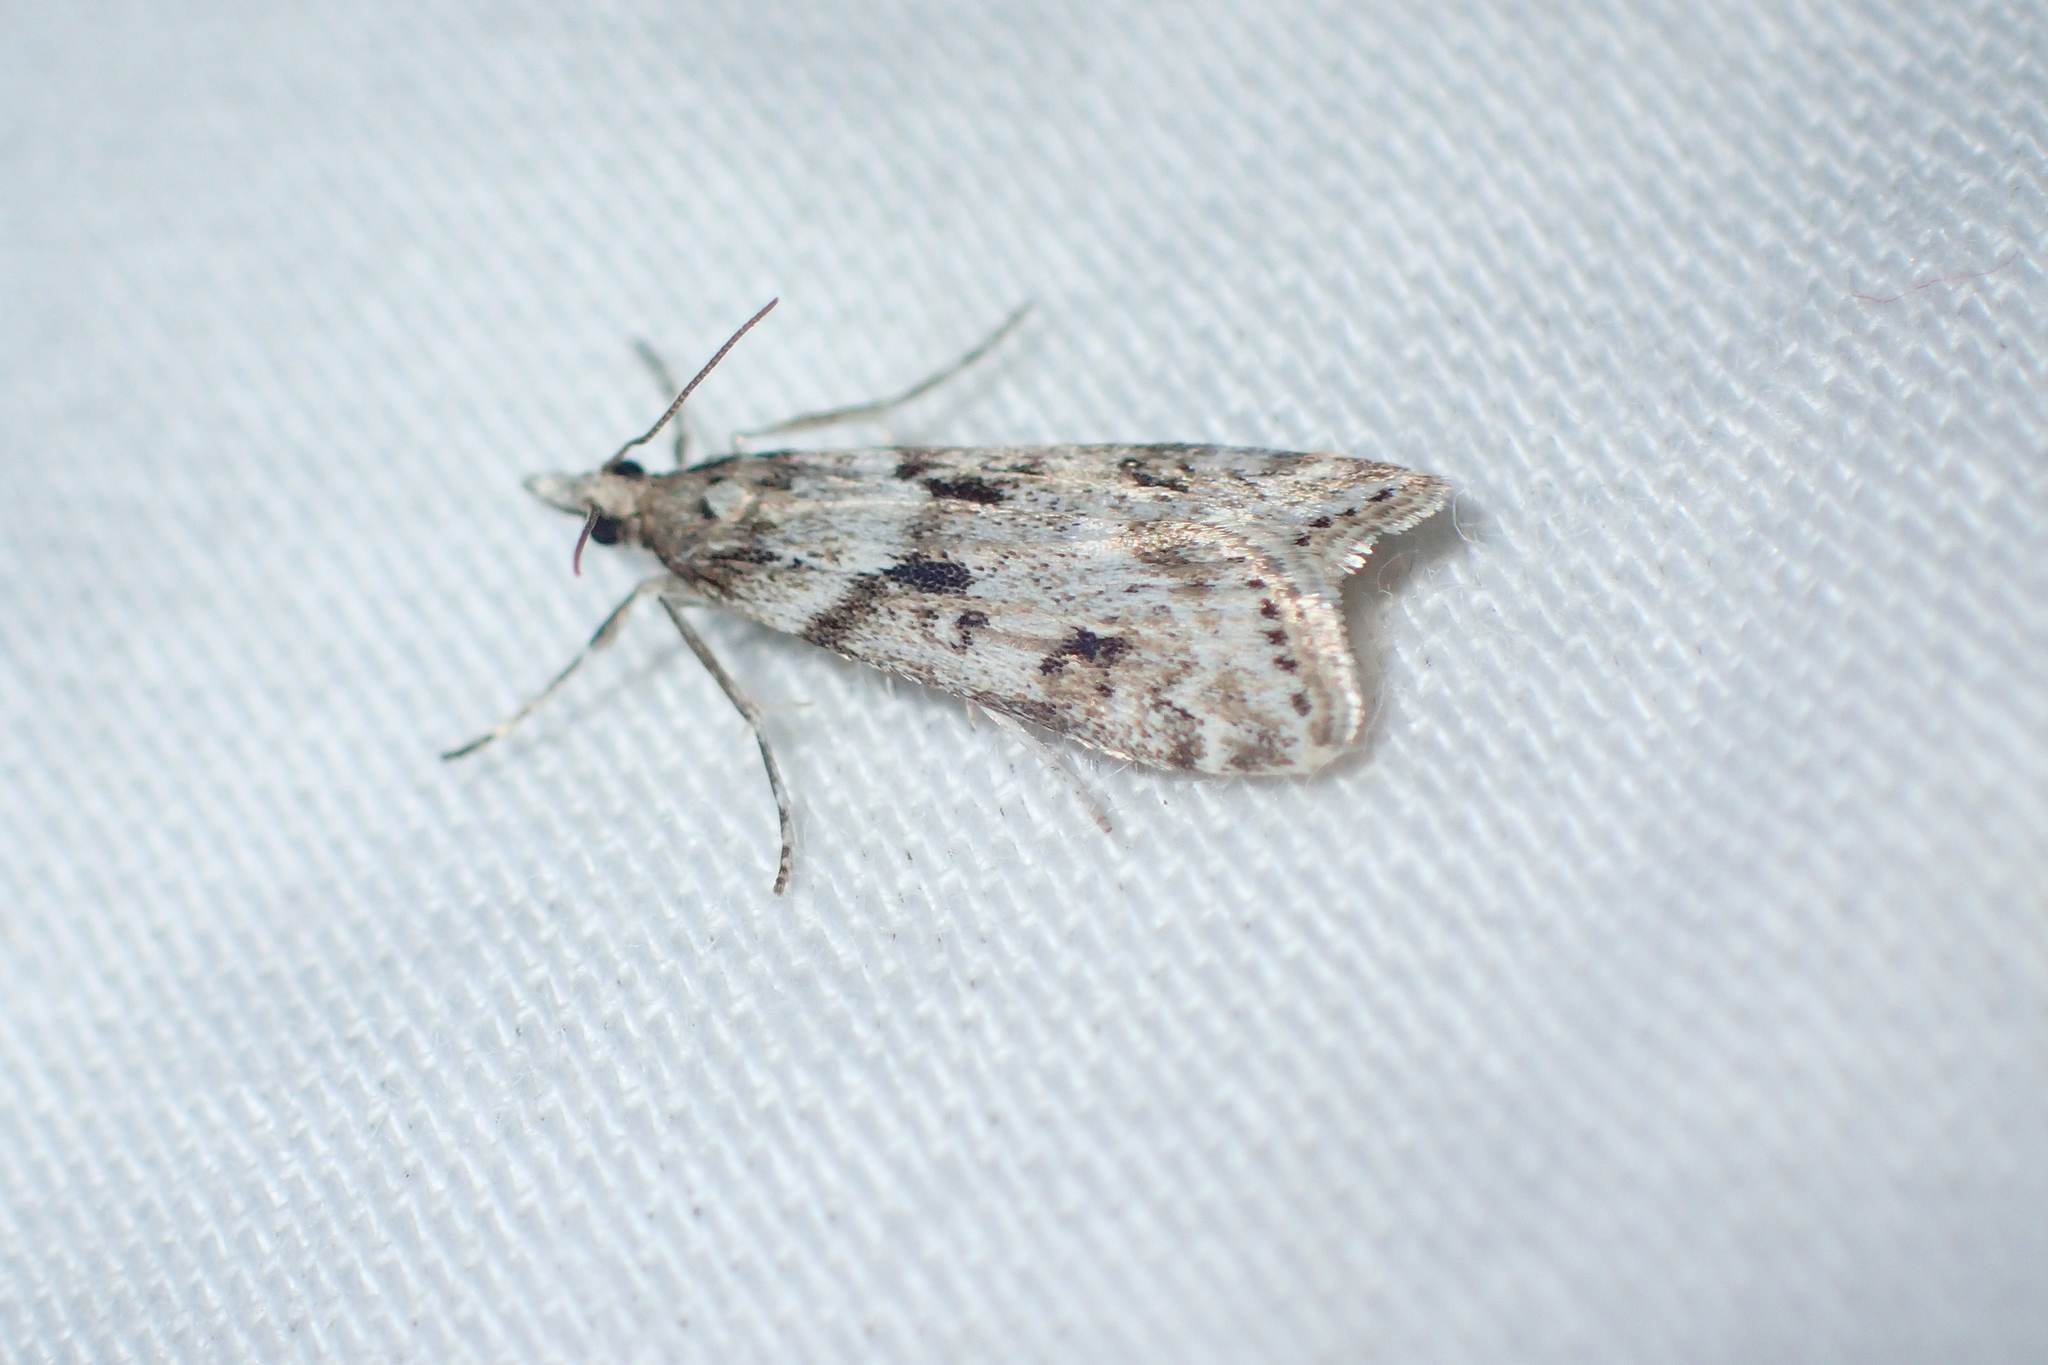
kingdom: Animalia
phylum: Arthropoda
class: Insecta
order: Lepidoptera
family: Crambidae
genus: Eudonia
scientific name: Eudonia angustea
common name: Narrow-winged grey
